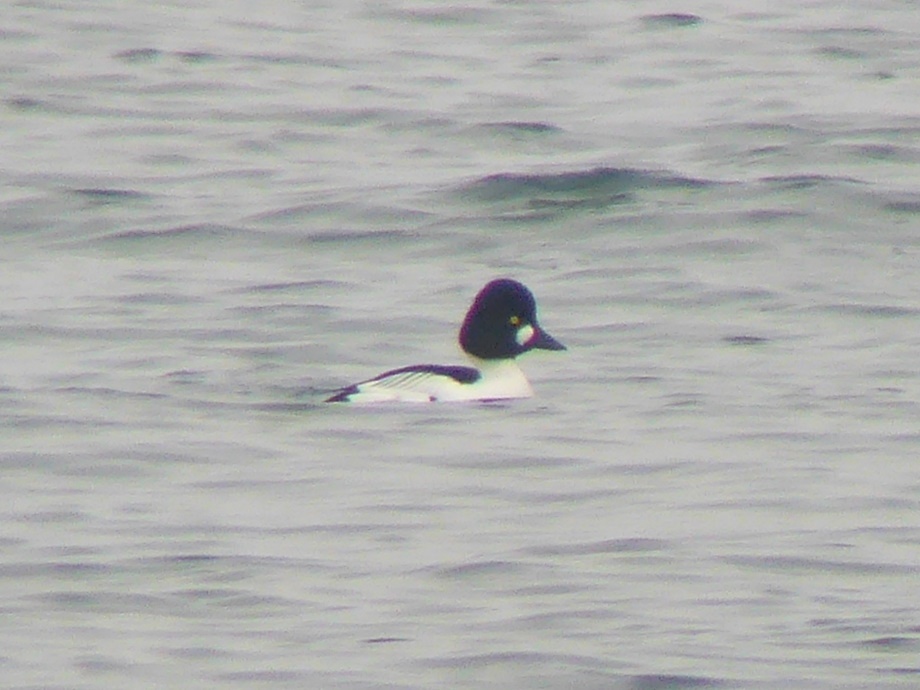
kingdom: Animalia
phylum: Chordata
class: Aves
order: Anseriformes
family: Anatidae
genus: Bucephala
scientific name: Bucephala clangula
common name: Common goldeneye
